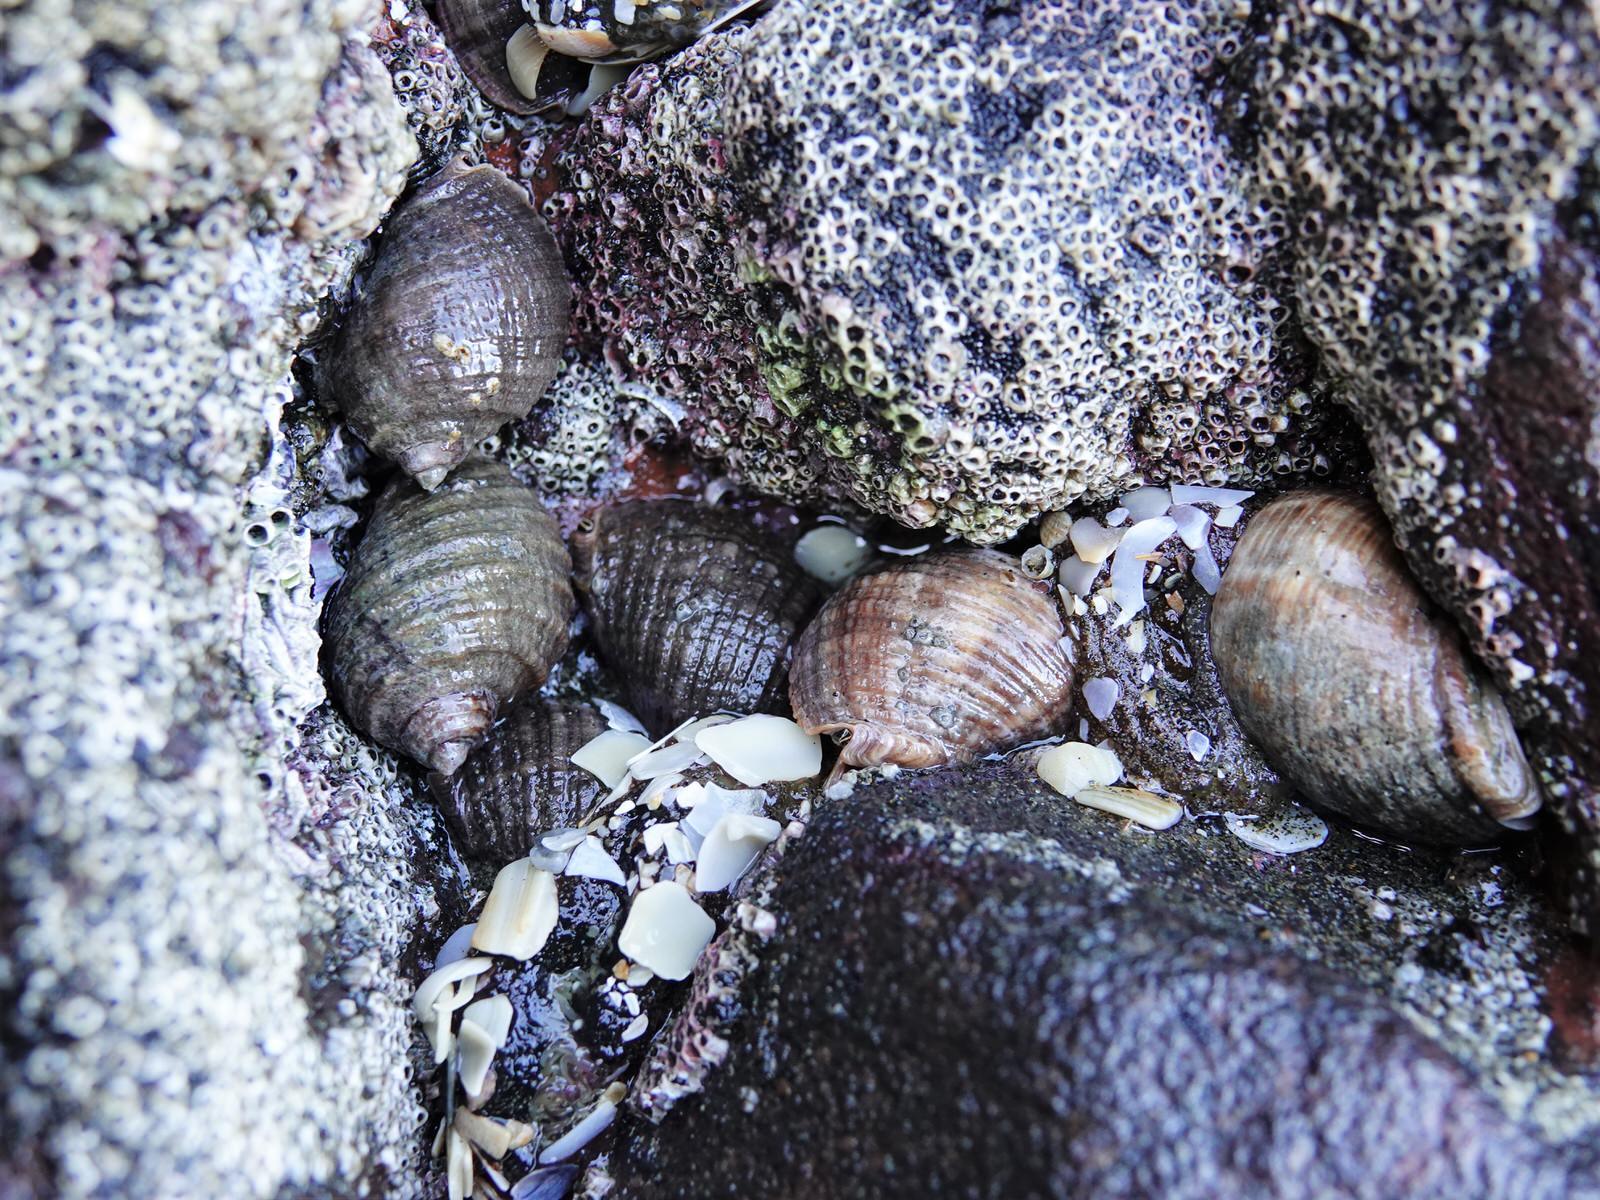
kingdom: Animalia
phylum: Mollusca
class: Gastropoda
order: Neogastropoda
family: Muricidae
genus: Dicathais
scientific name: Dicathais orbita
